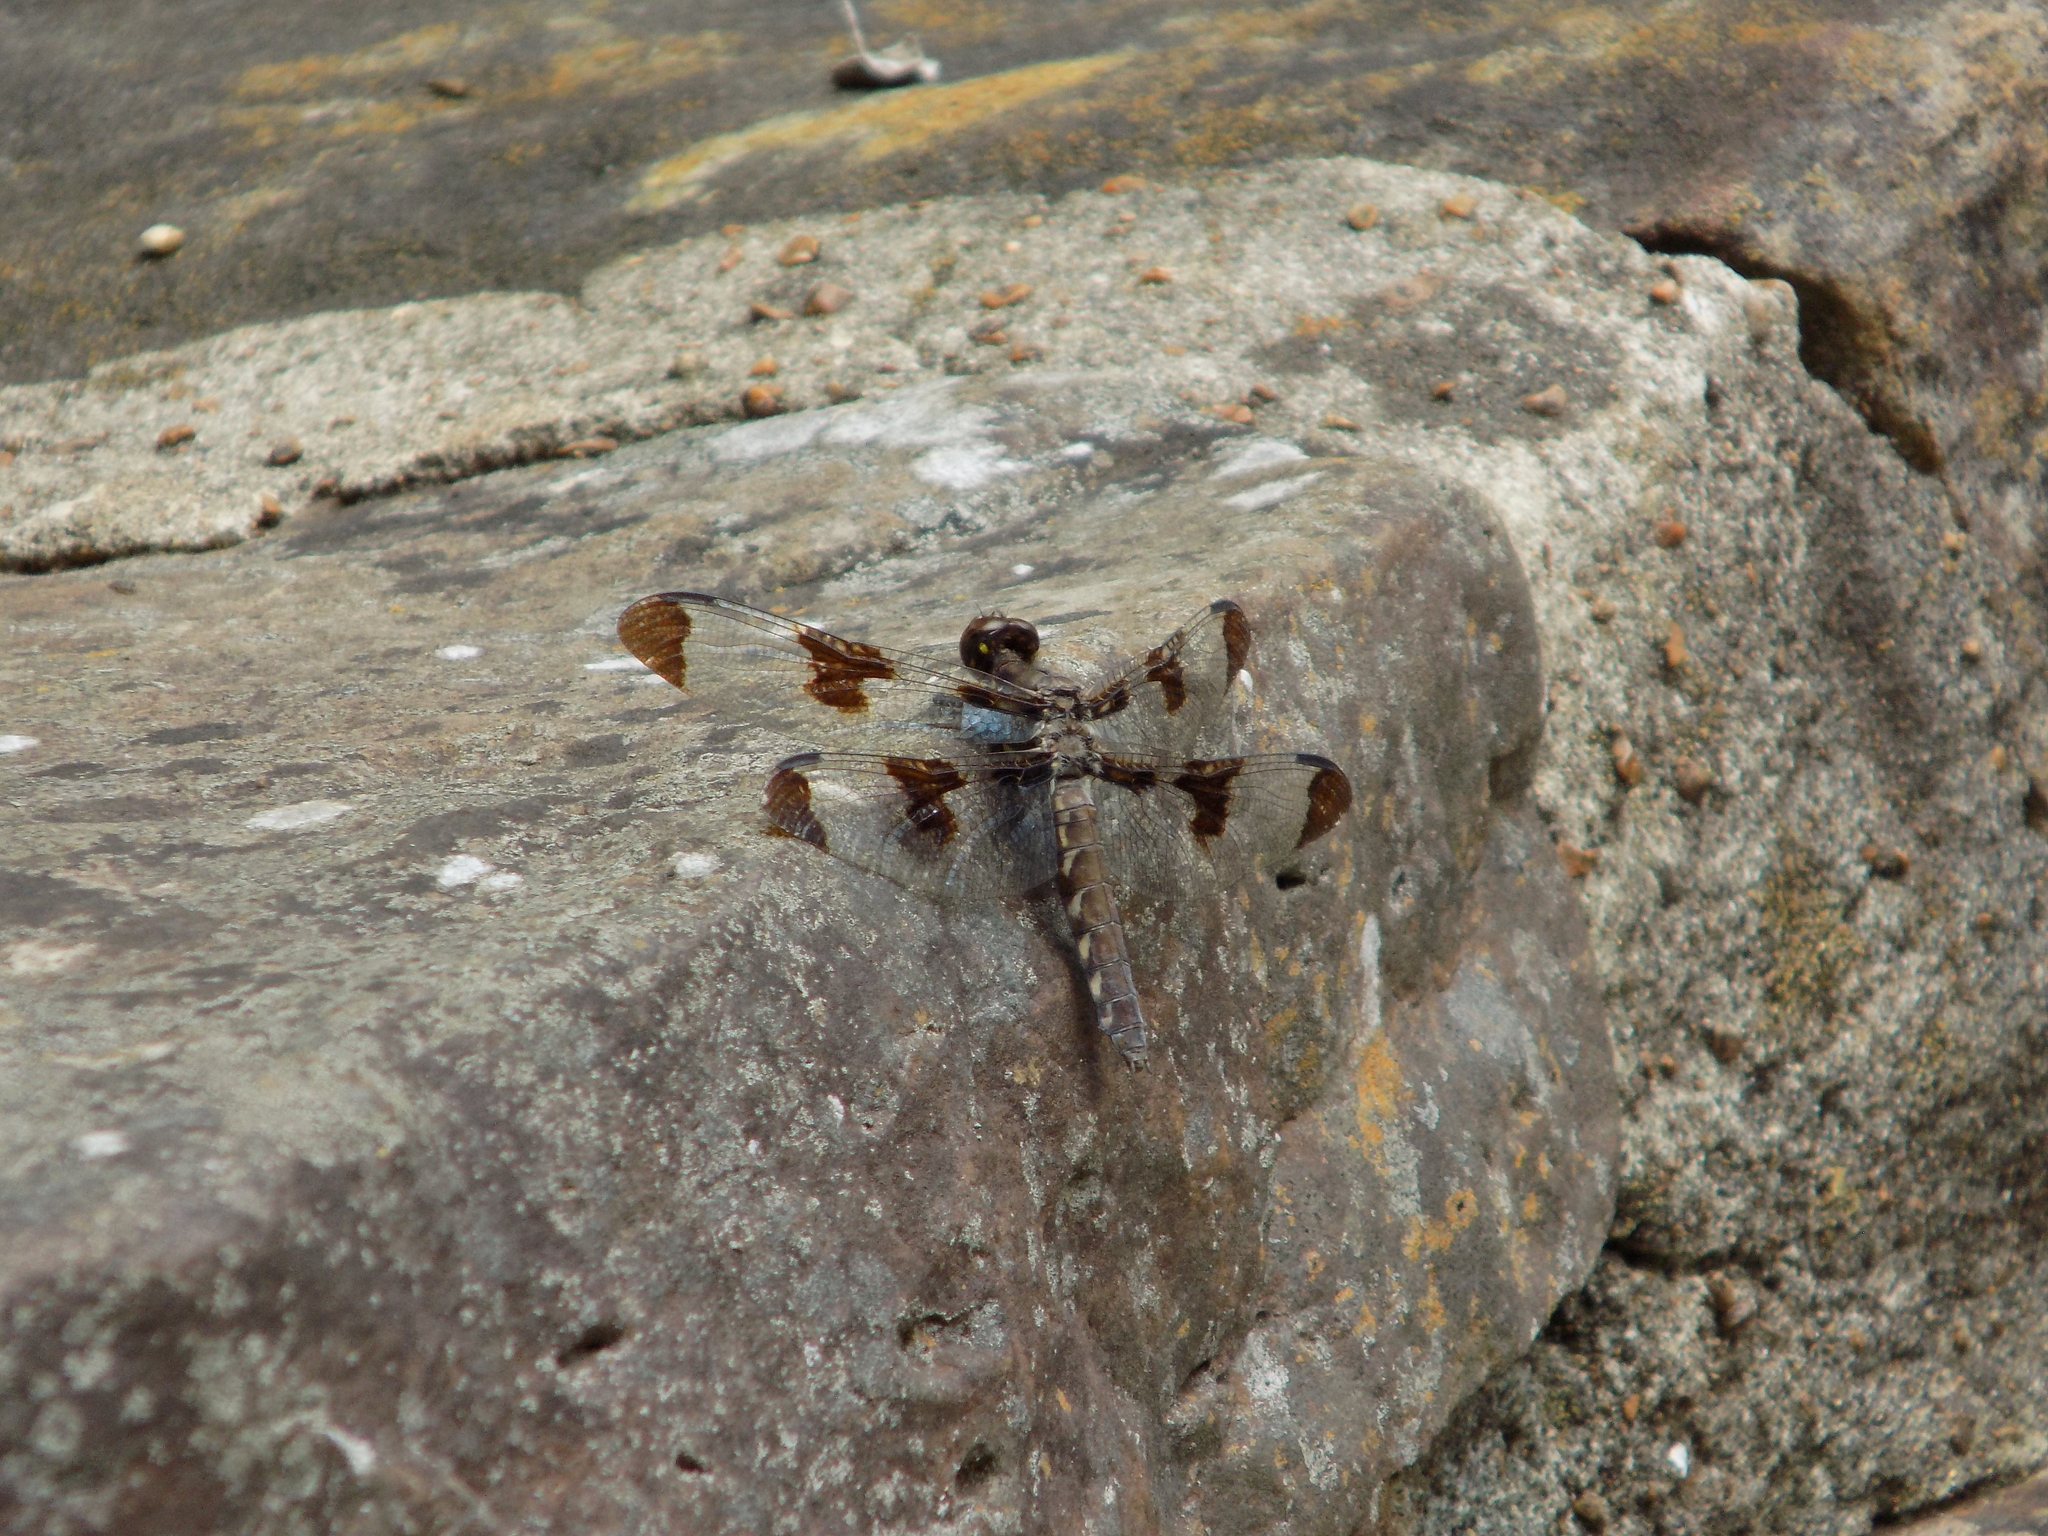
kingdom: Animalia
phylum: Arthropoda
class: Insecta
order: Odonata
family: Libellulidae
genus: Plathemis
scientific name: Plathemis lydia
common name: Common whitetail
